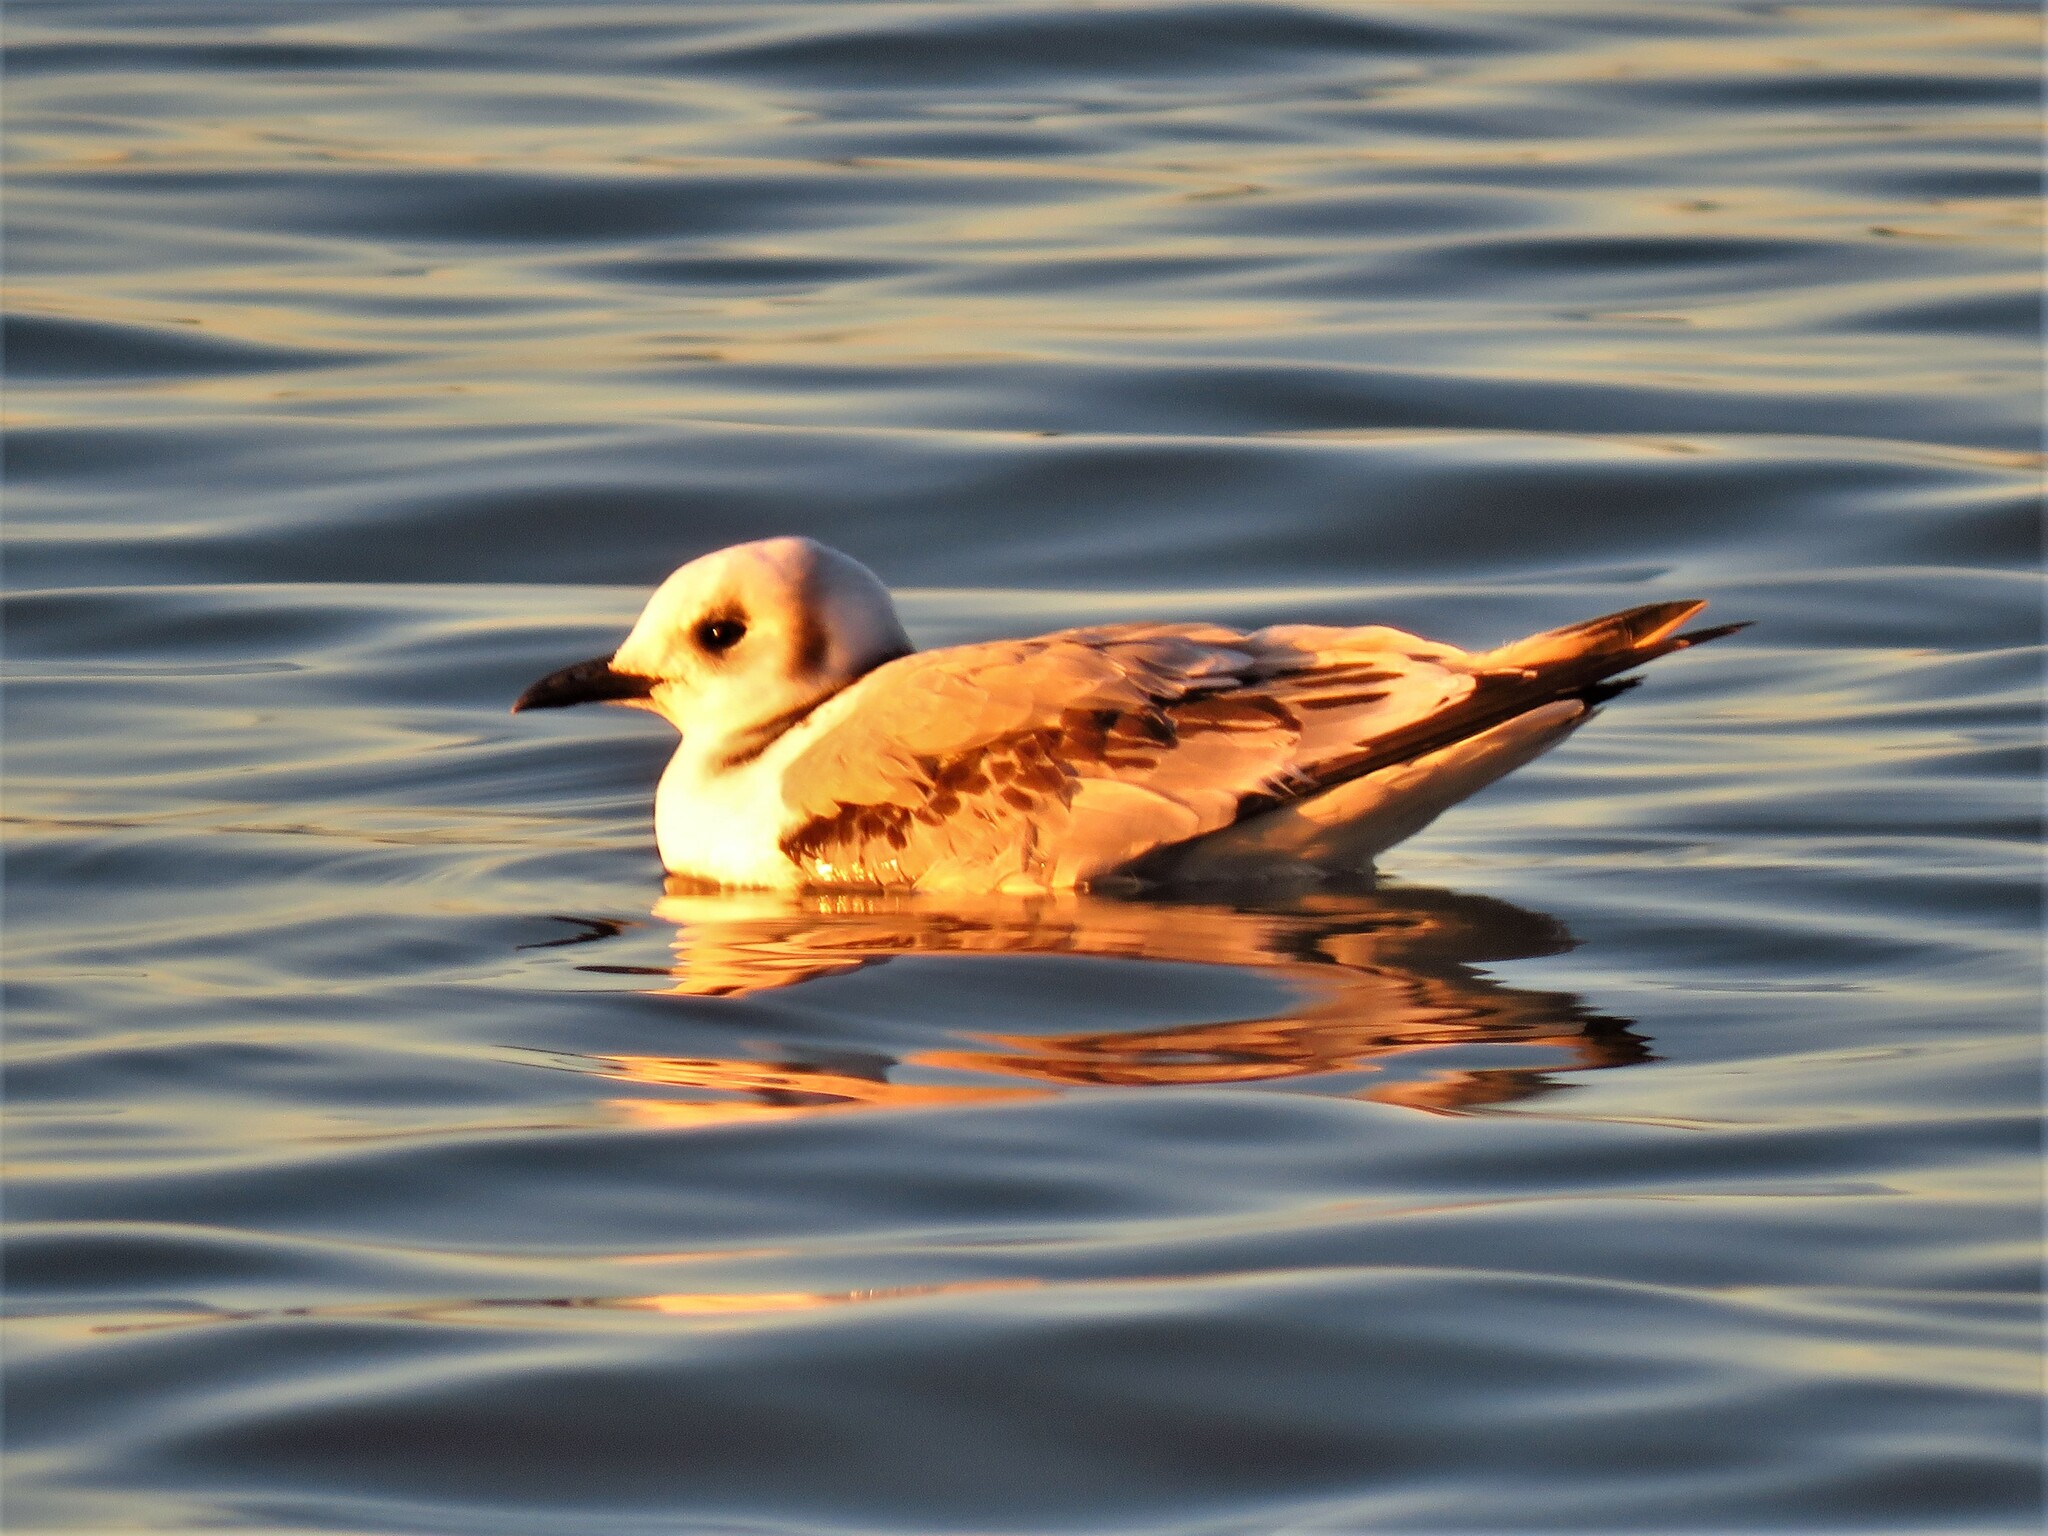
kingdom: Animalia
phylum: Chordata
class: Aves
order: Charadriiformes
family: Laridae
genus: Rissa
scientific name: Rissa tridactyla
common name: Black-legged kittiwake
